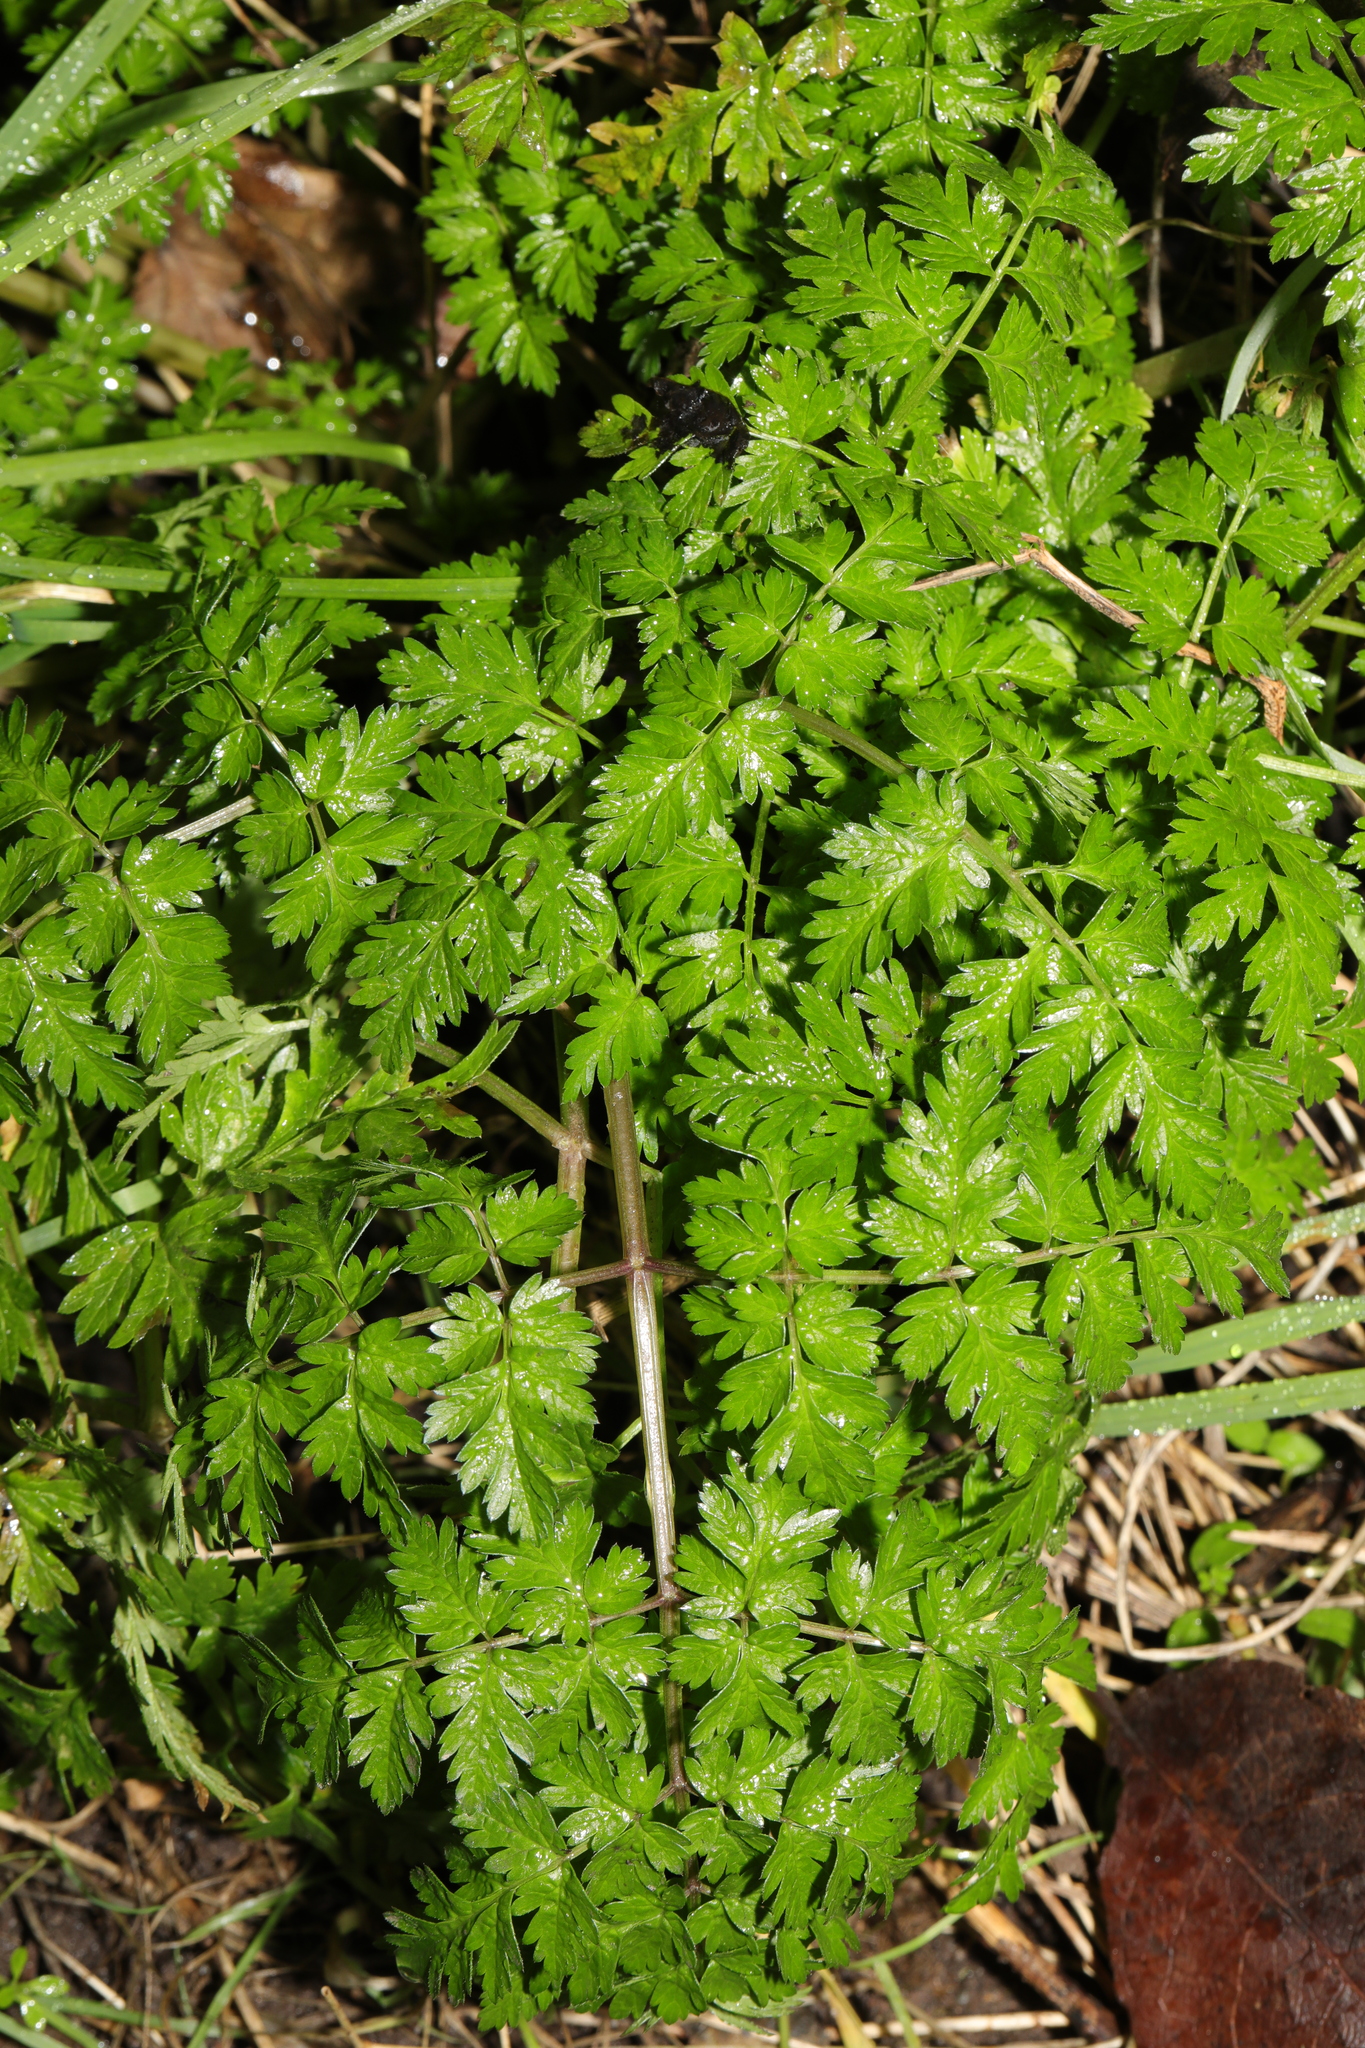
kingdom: Plantae
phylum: Tracheophyta
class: Magnoliopsida
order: Apiales
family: Apiaceae
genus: Anthriscus
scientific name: Anthriscus sylvestris
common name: Cow parsley
